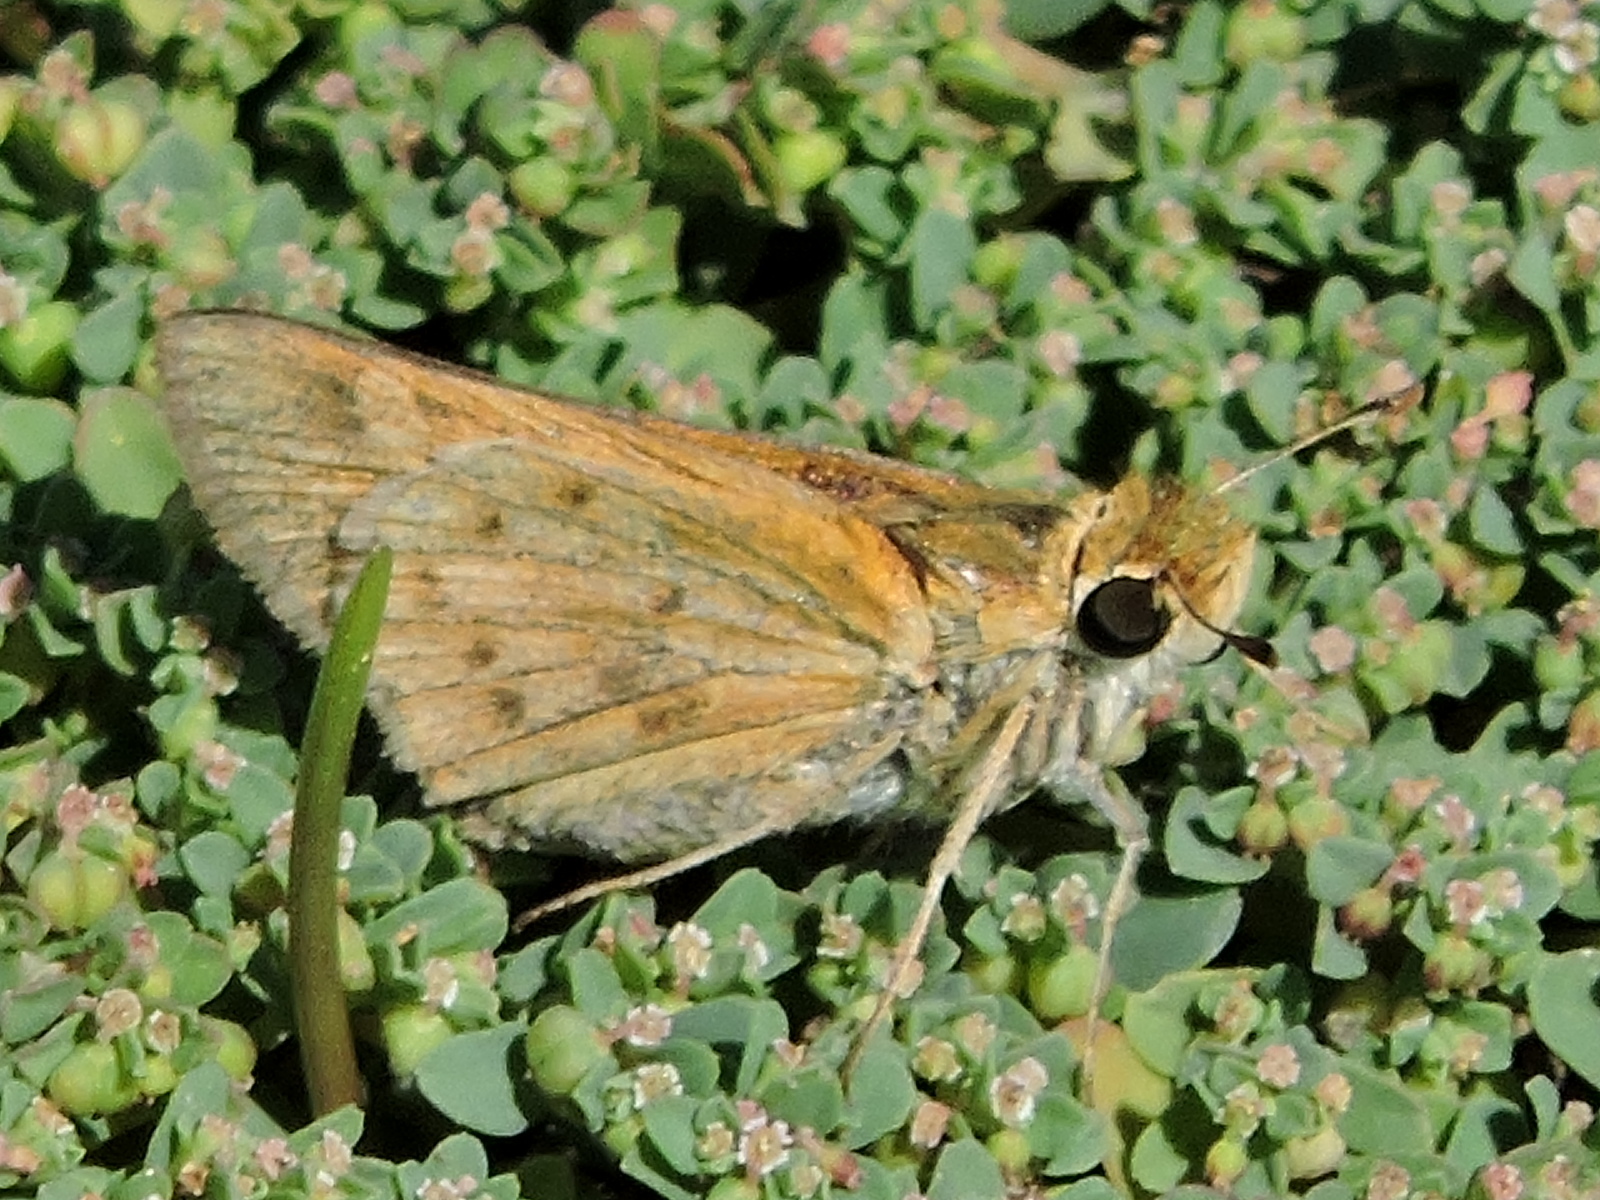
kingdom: Animalia
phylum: Arthropoda
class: Insecta
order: Lepidoptera
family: Hesperiidae
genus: Hylephila
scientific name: Hylephila phyleus
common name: Fiery skipper
